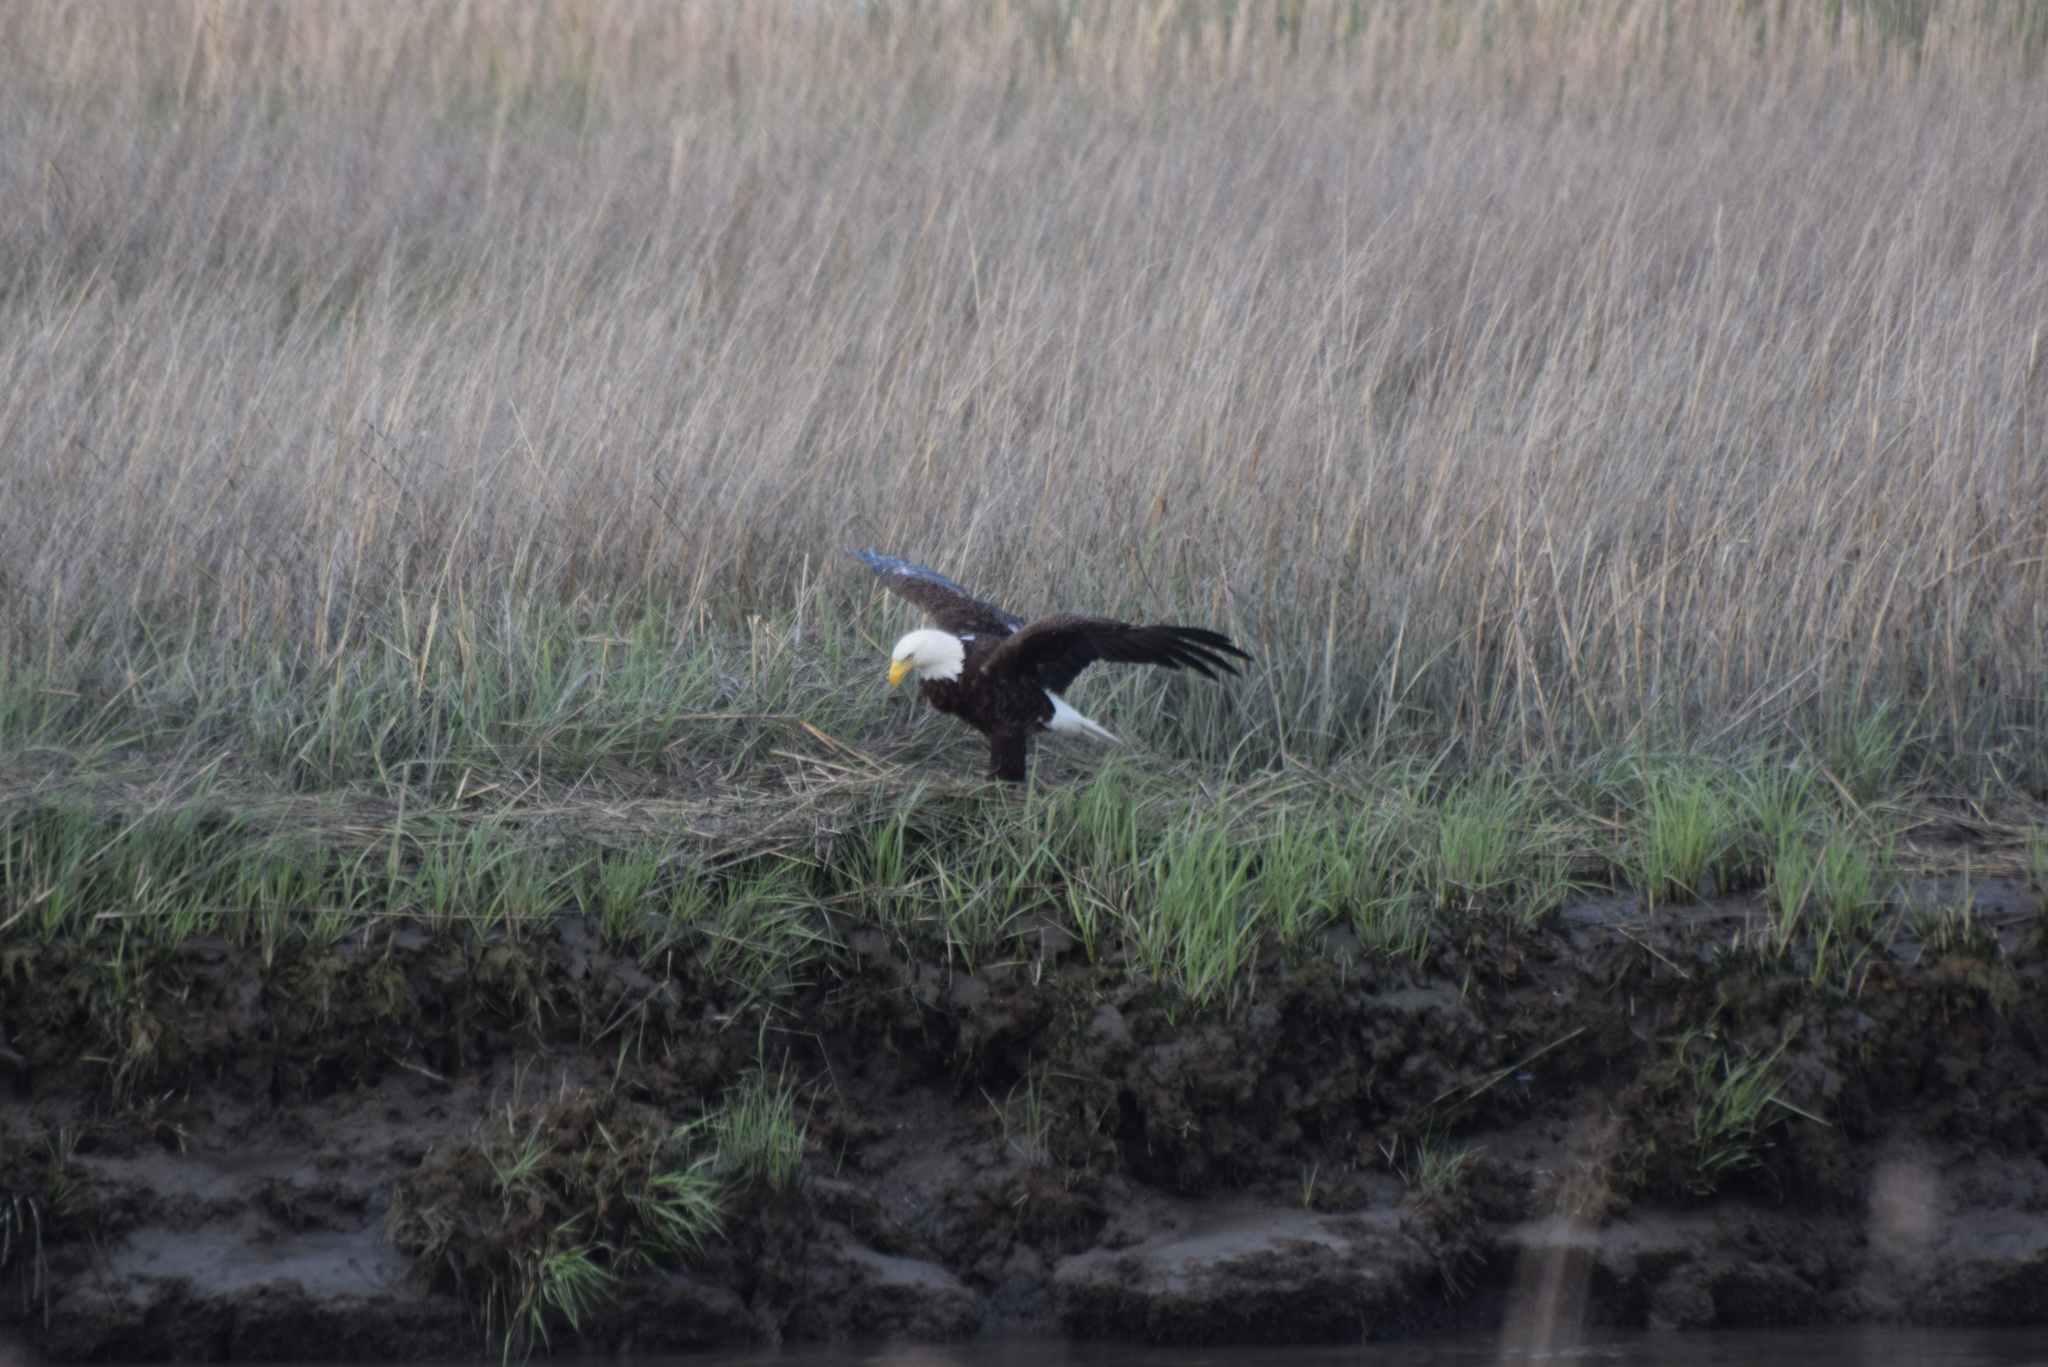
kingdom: Animalia
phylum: Chordata
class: Aves
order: Accipitriformes
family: Accipitridae
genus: Haliaeetus
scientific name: Haliaeetus leucocephalus
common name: Bald eagle
